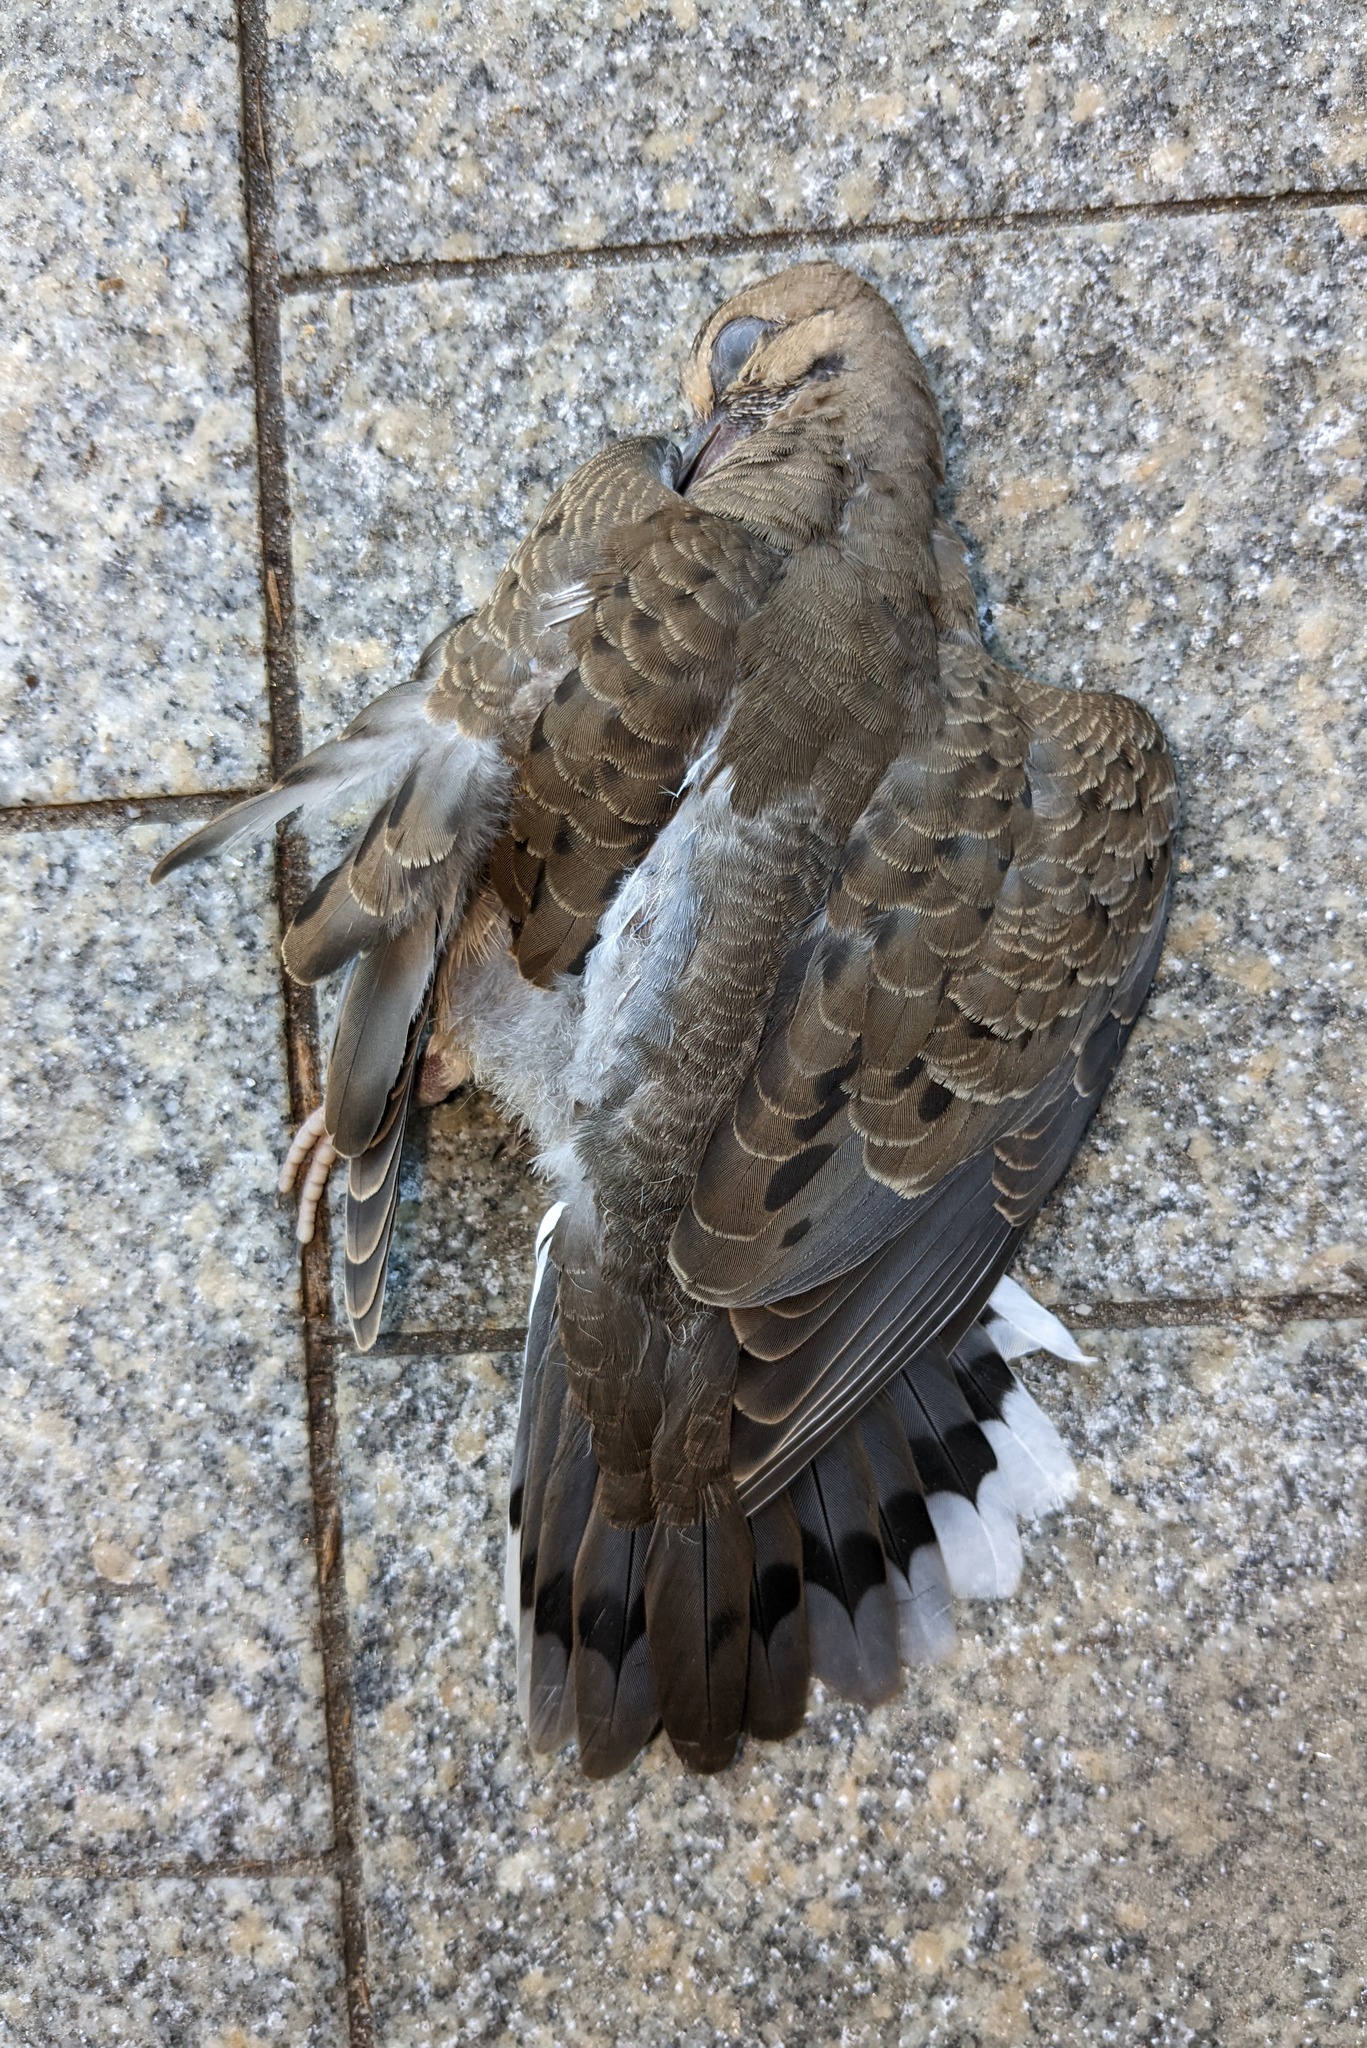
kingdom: Animalia
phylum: Chordata
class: Aves
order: Columbiformes
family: Columbidae
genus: Zenaida
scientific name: Zenaida macroura
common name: Mourning dove
